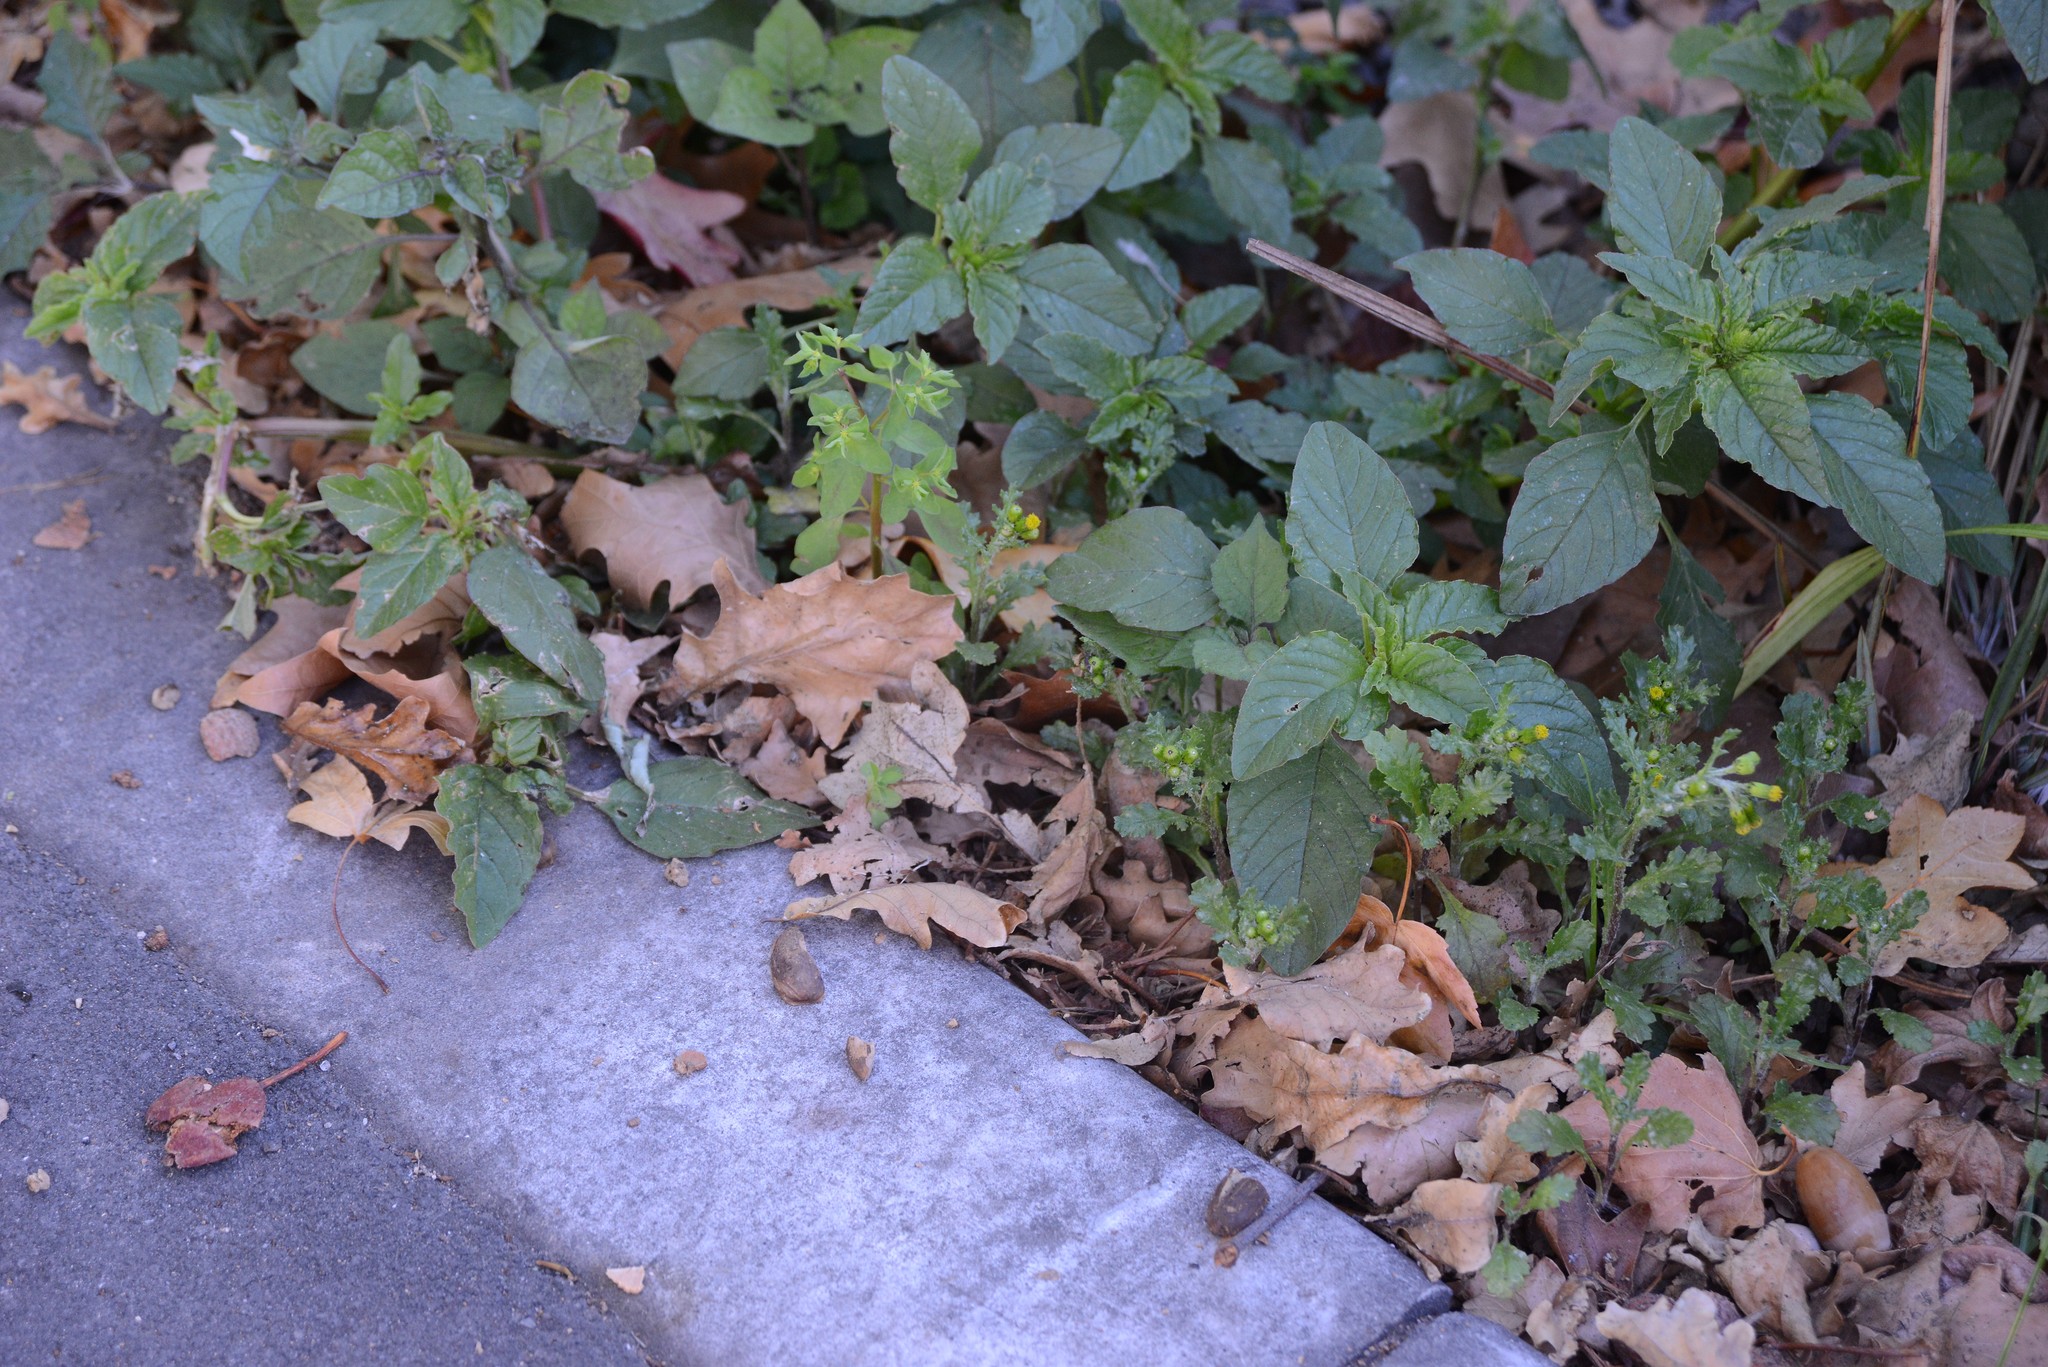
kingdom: Plantae
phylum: Tracheophyta
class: Magnoliopsida
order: Asterales
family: Asteraceae
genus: Senecio
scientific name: Senecio vulgaris
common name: Old-man-in-the-spring
